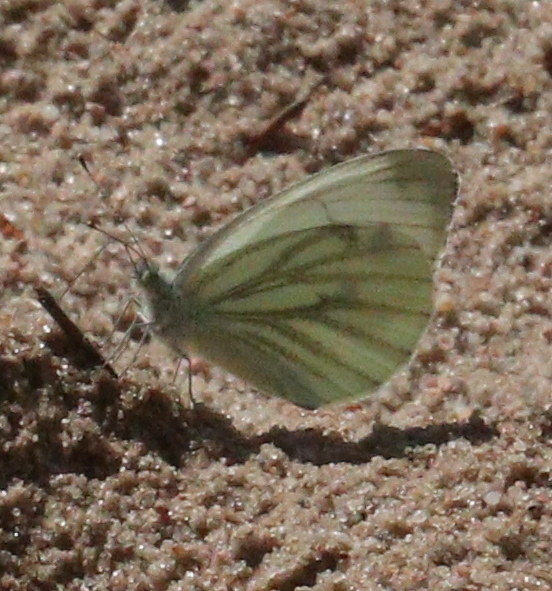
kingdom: Animalia
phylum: Arthropoda
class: Insecta
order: Lepidoptera
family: Pieridae
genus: Pieris
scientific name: Pieris napi
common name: Green-veined white
